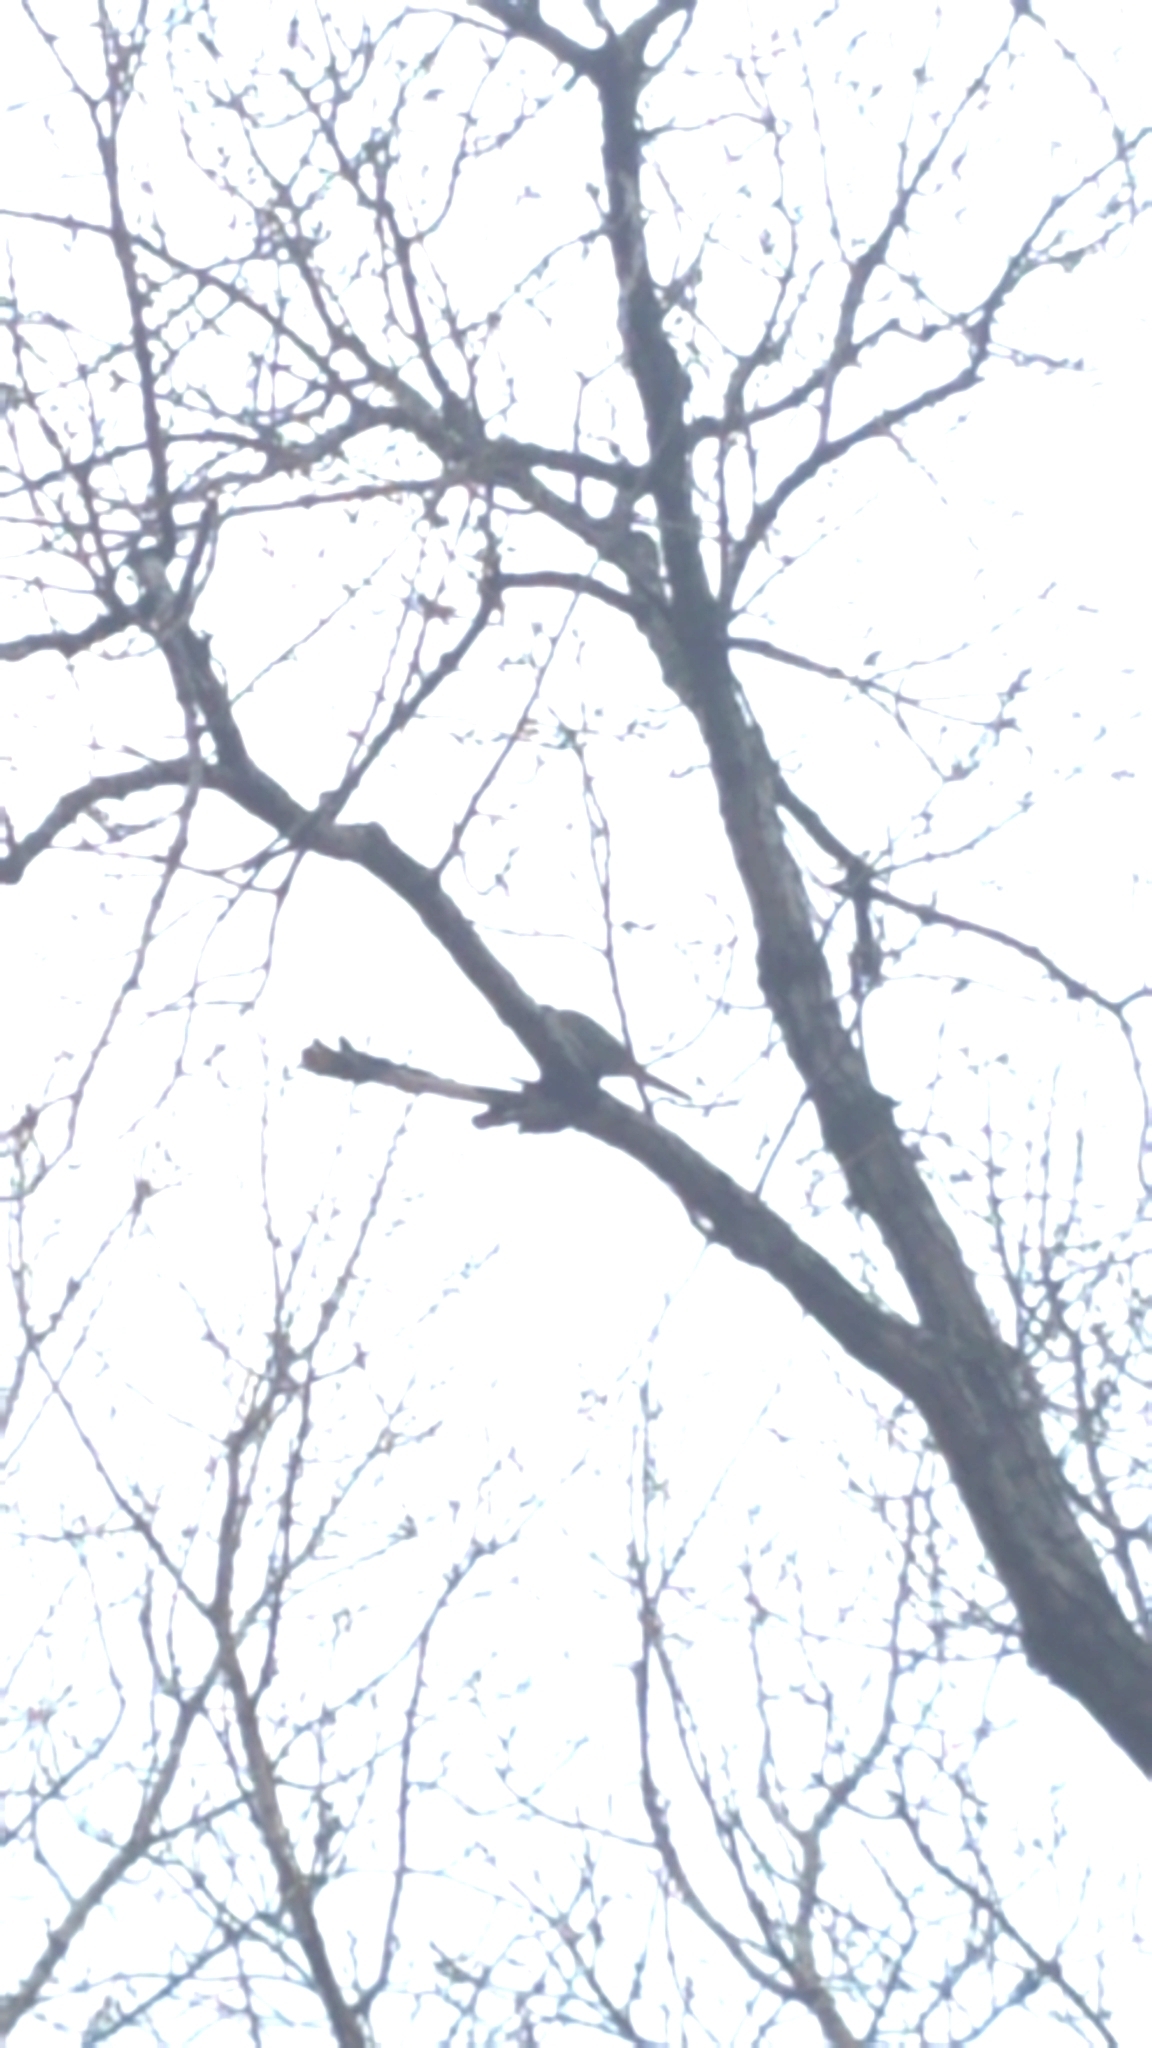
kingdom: Animalia
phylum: Chordata
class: Aves
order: Columbiformes
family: Columbidae
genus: Zenaida
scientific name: Zenaida macroura
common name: Mourning dove
